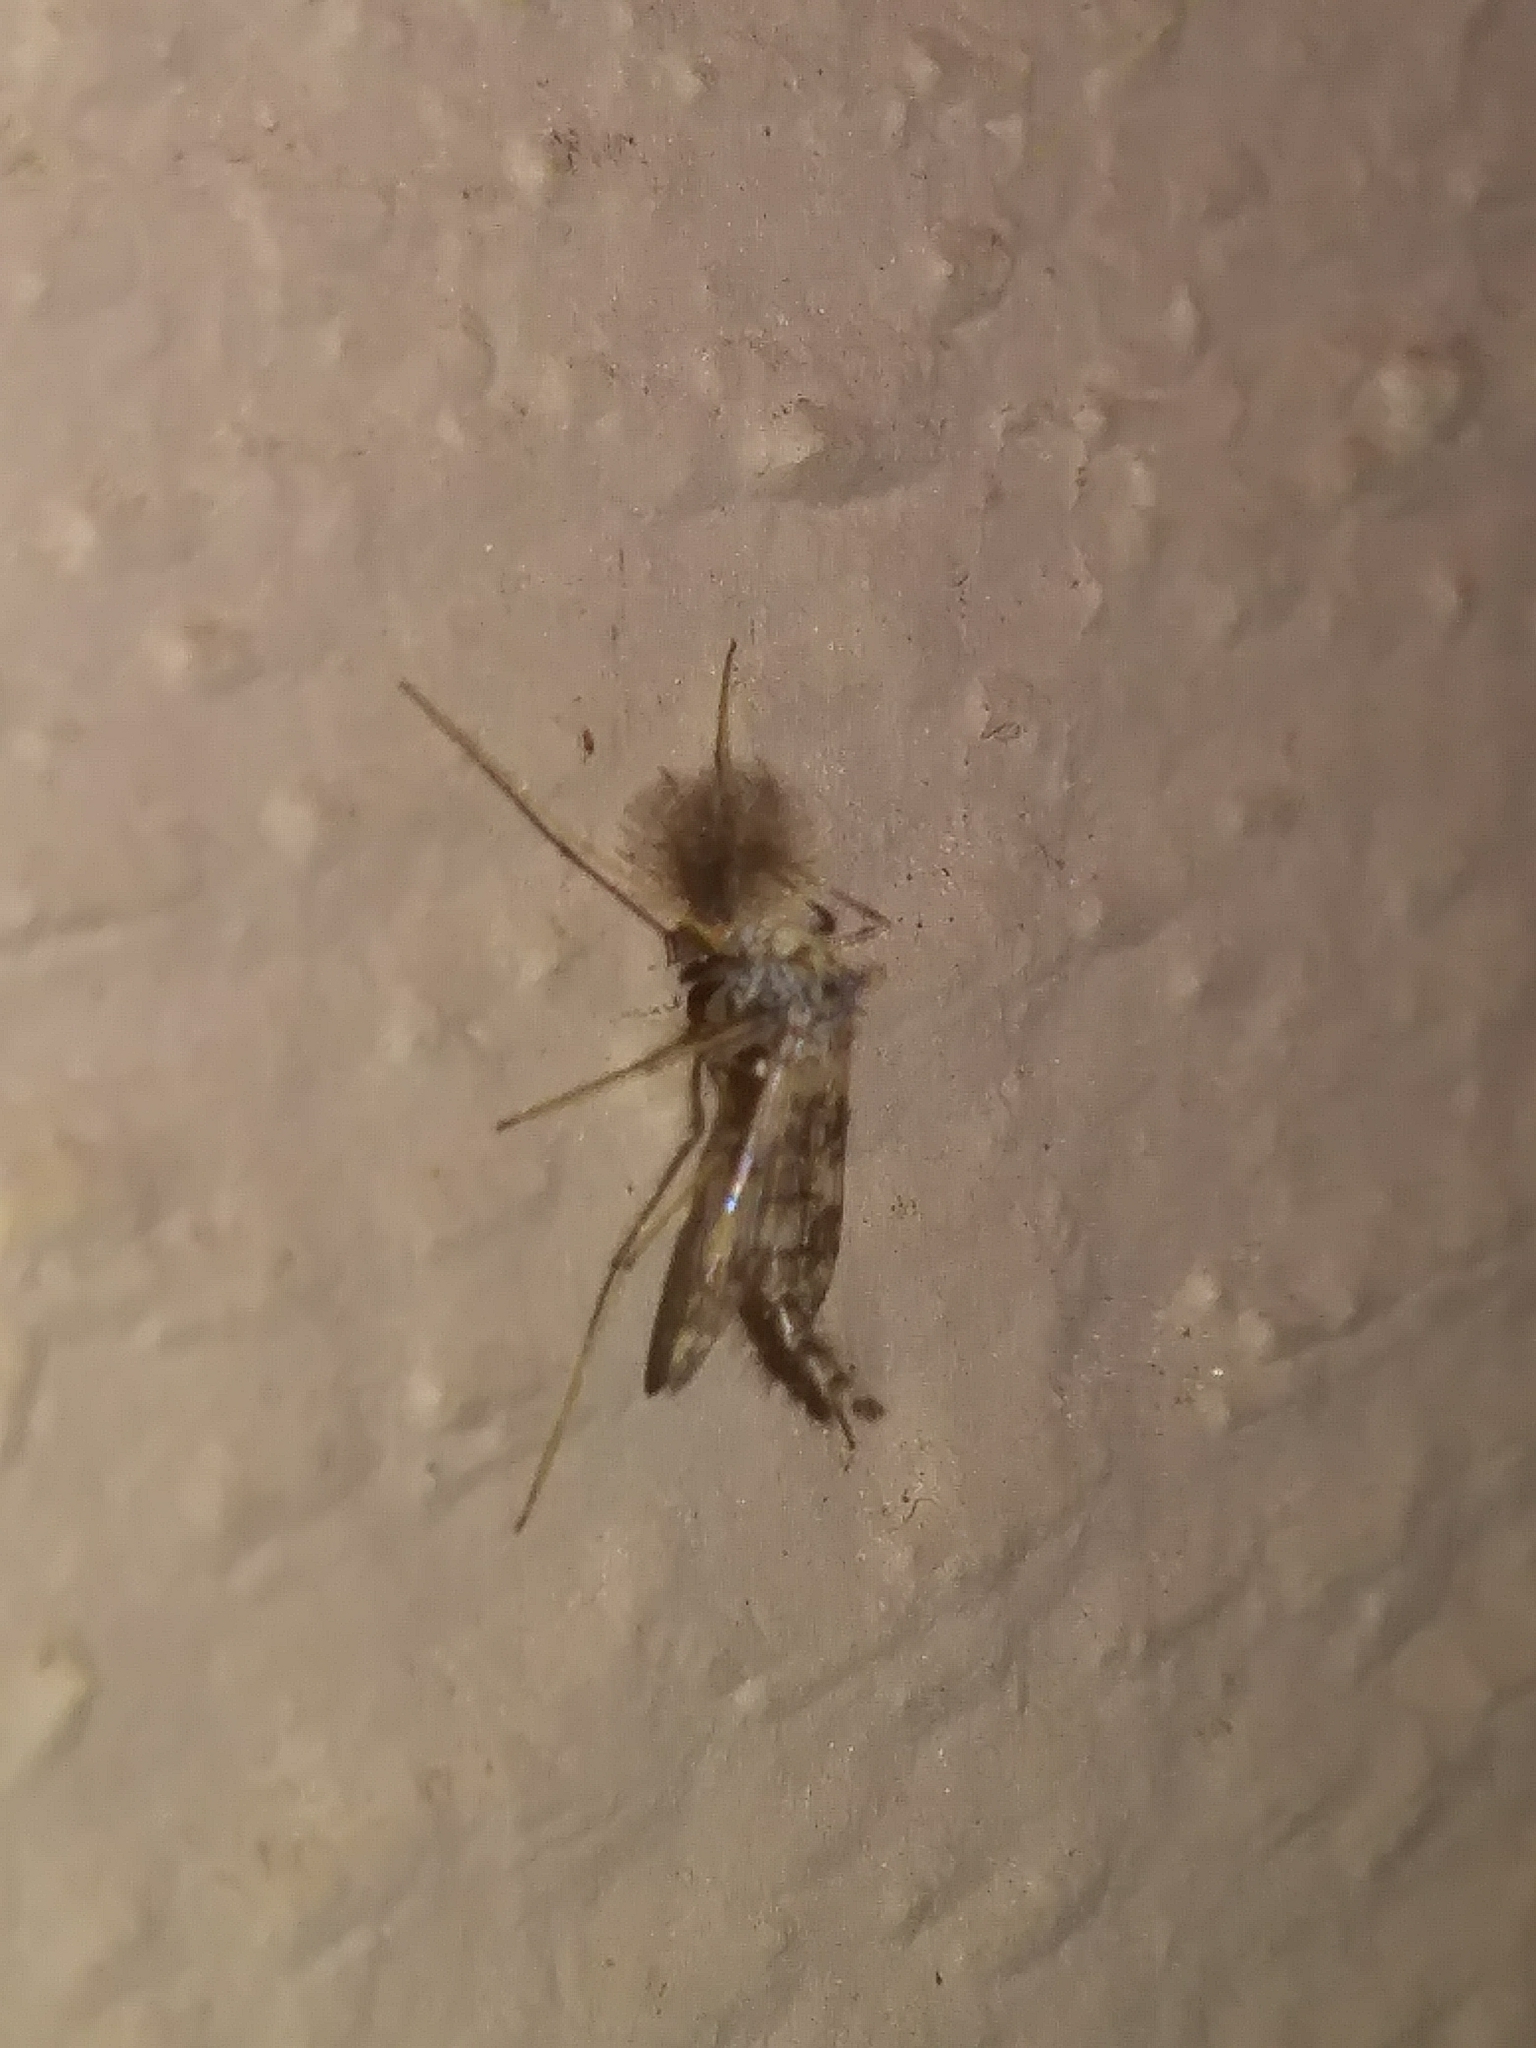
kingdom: Animalia
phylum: Arthropoda
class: Insecta
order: Diptera
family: Chironomidae
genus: Psectrotanypus
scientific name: Psectrotanypus dyari
